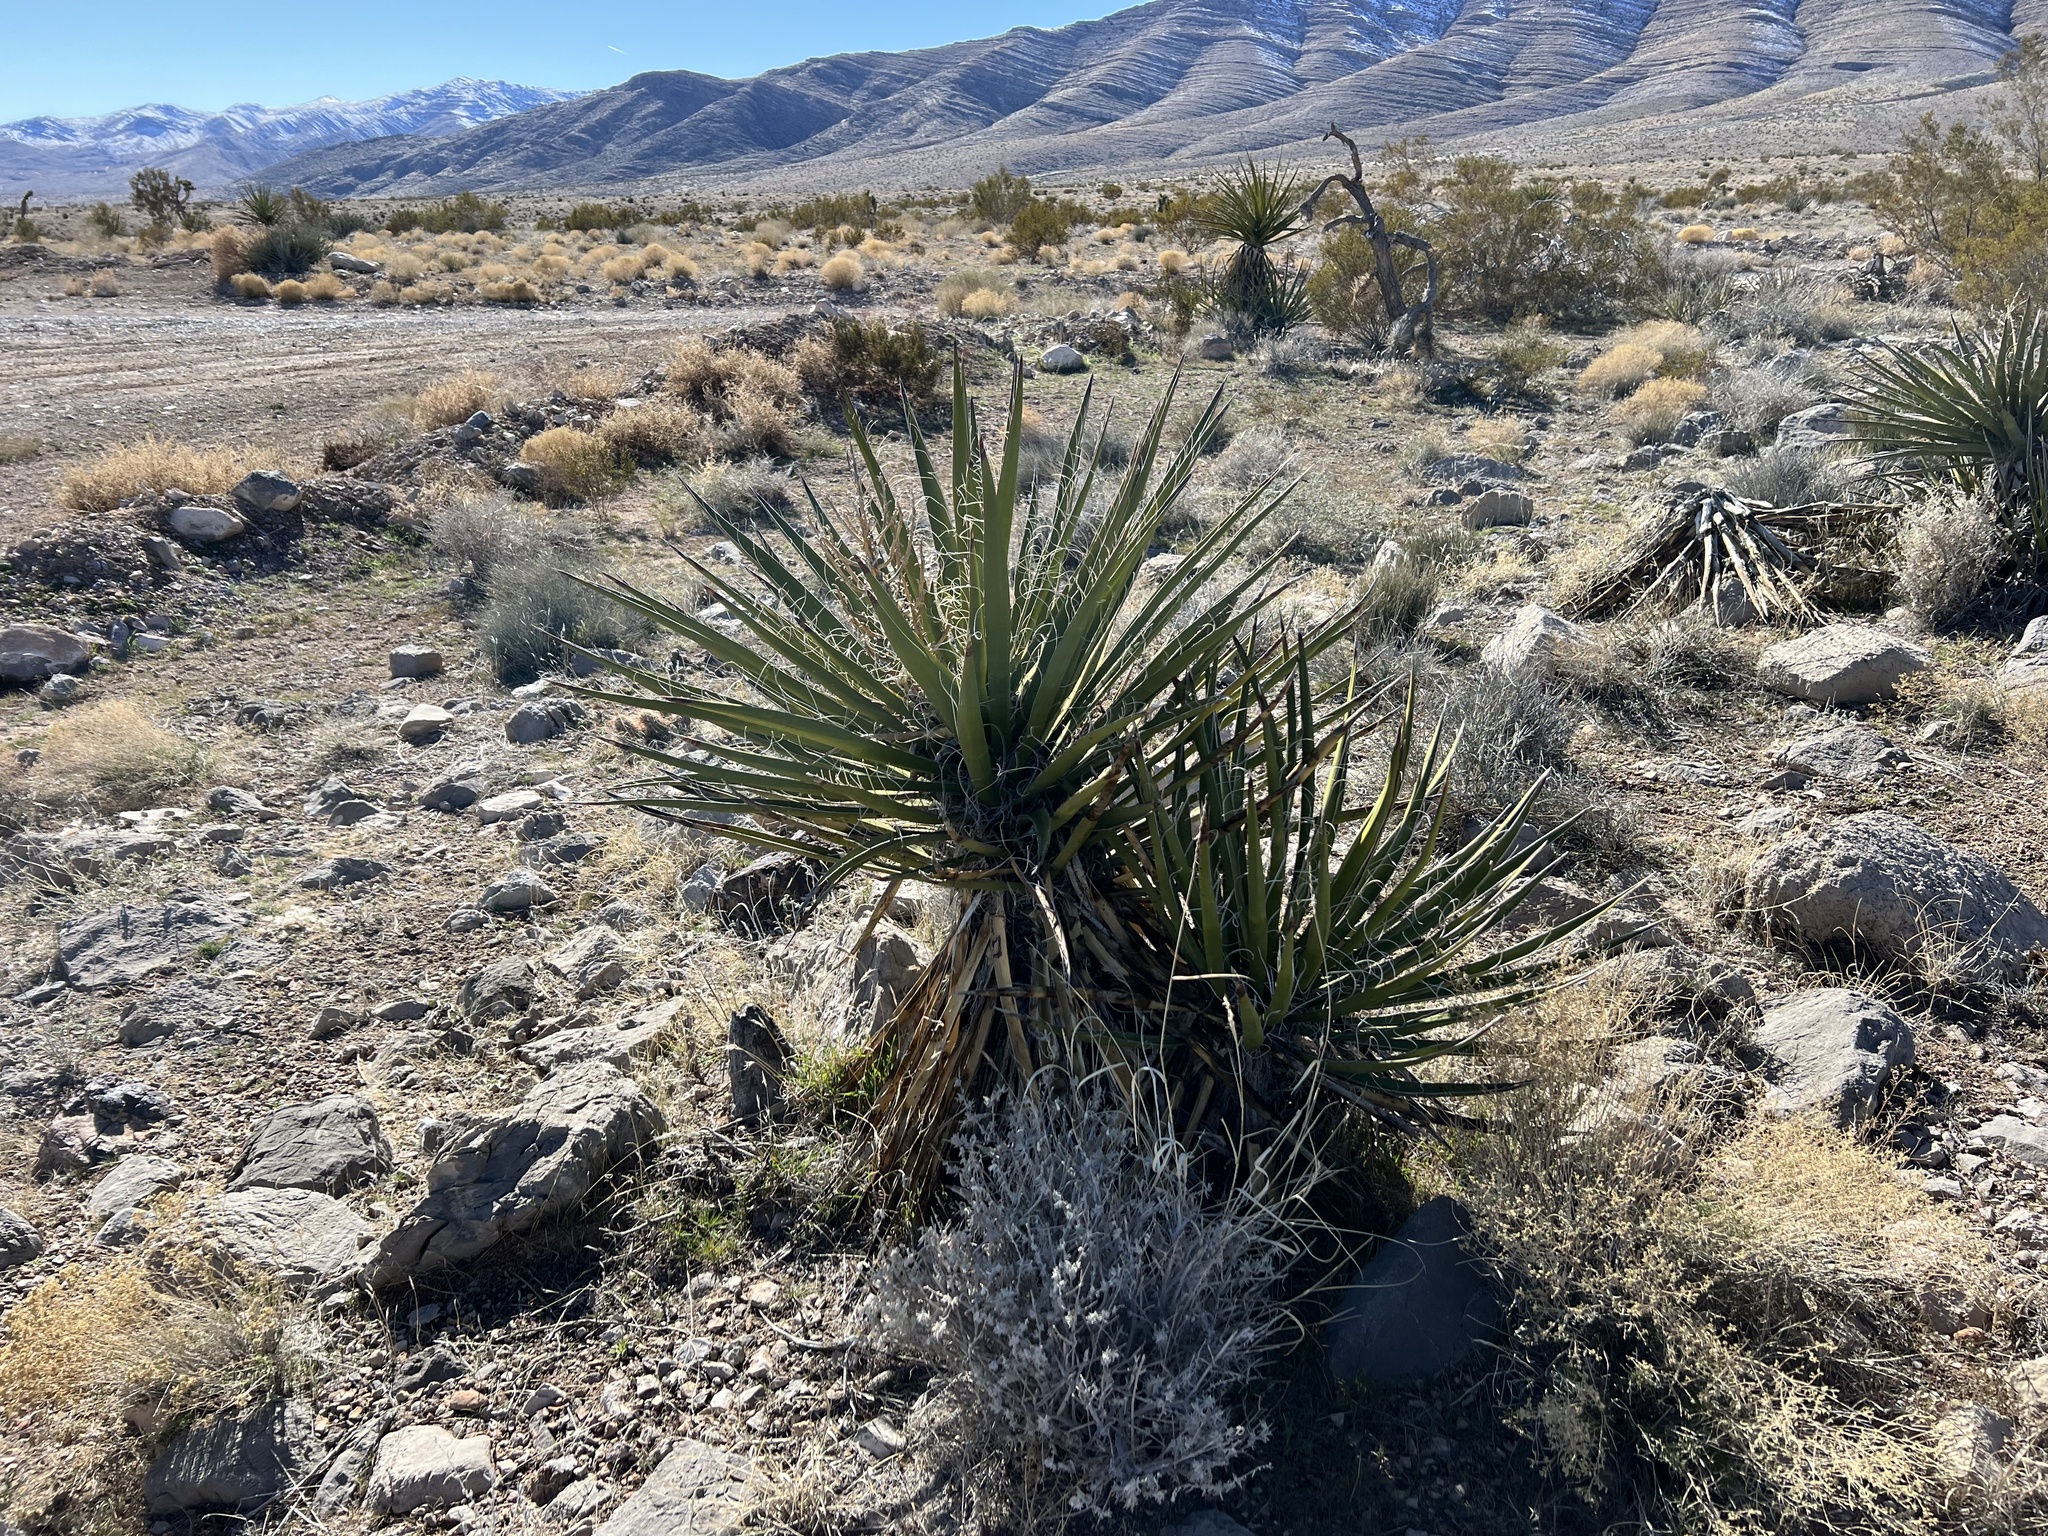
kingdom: Plantae
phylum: Tracheophyta
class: Liliopsida
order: Asparagales
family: Asparagaceae
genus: Yucca
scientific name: Yucca schidigera
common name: Mojave yucca
